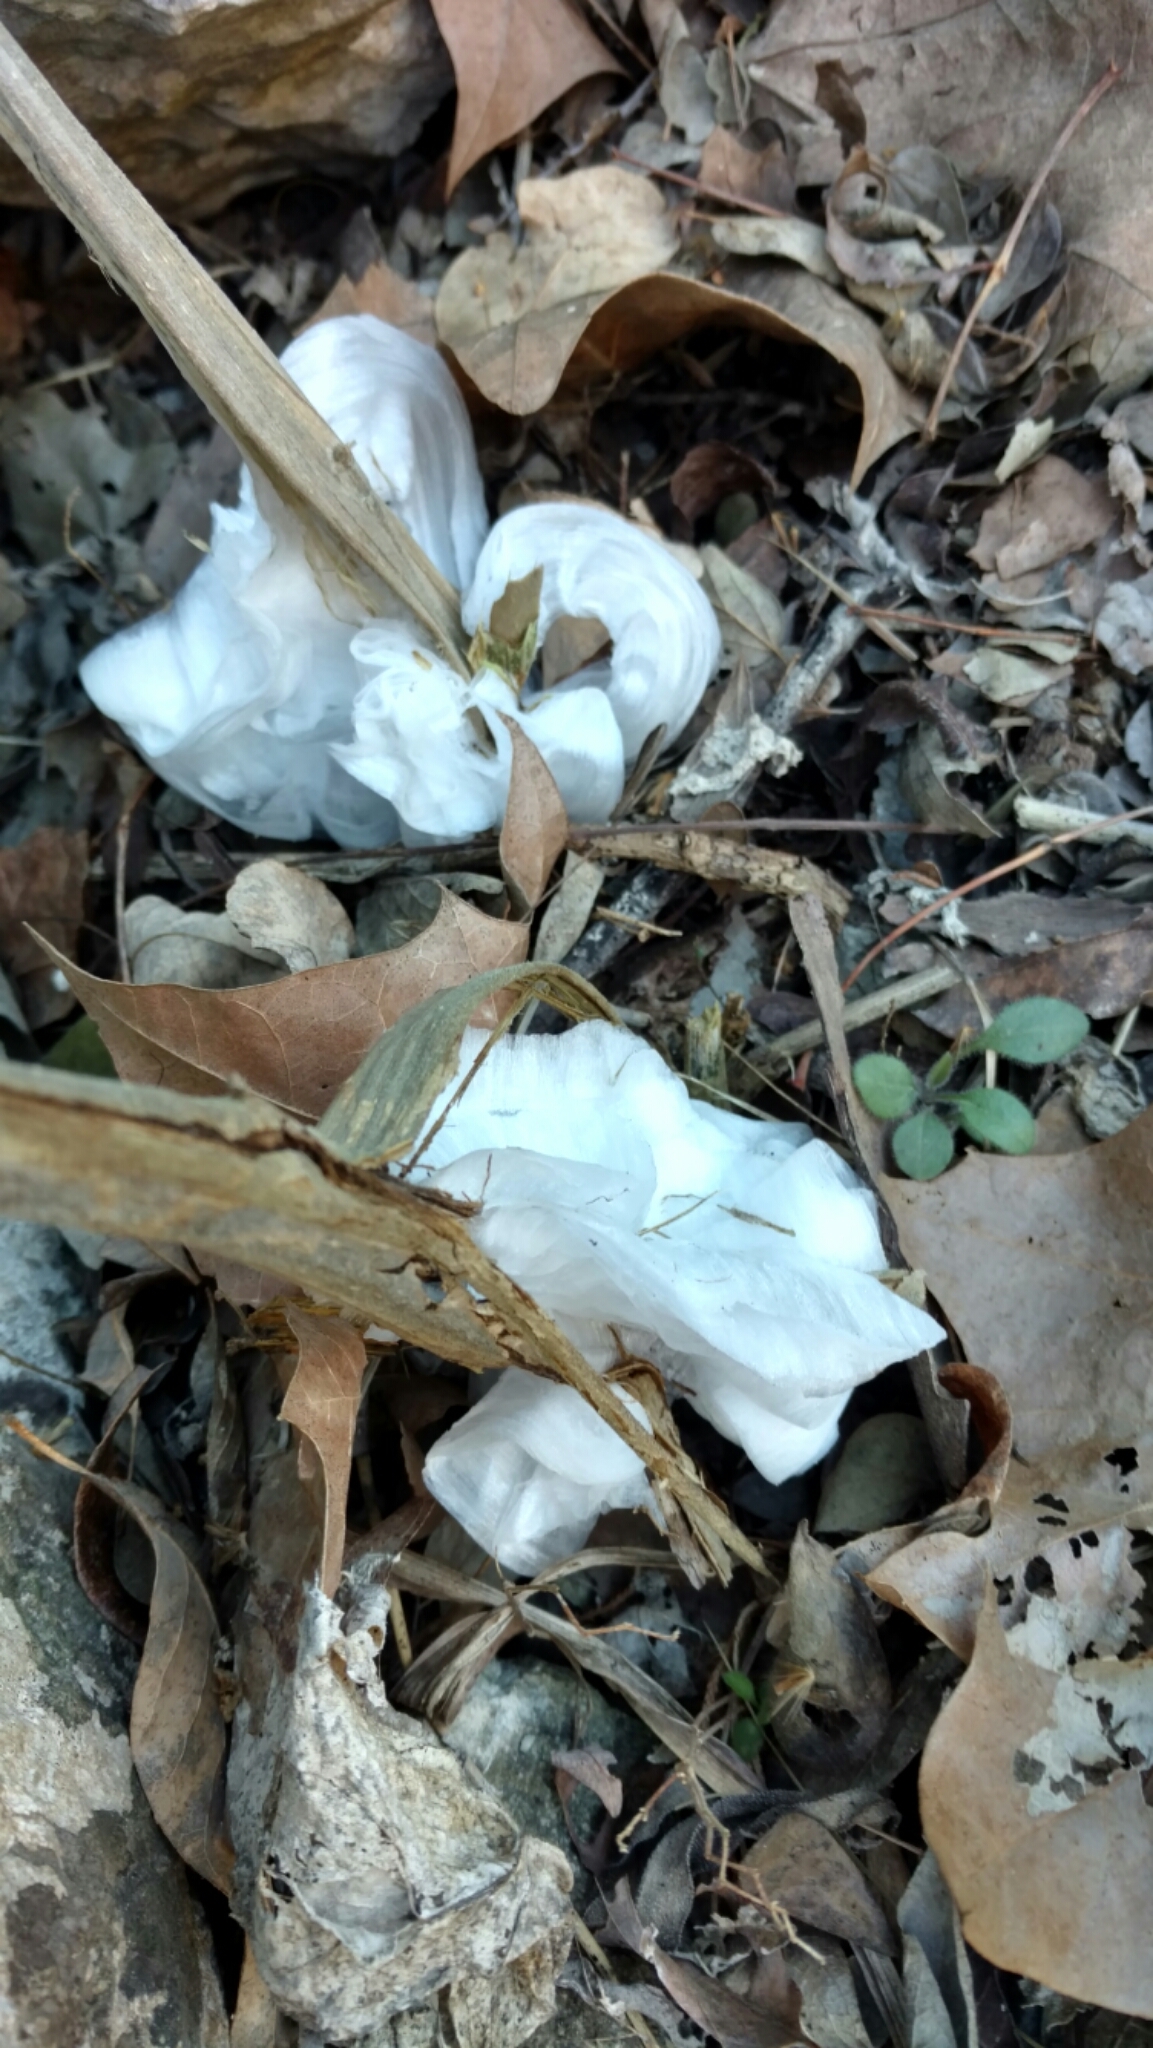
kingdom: Plantae
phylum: Tracheophyta
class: Magnoliopsida
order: Asterales
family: Asteraceae
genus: Verbesina
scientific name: Verbesina virginica
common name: Frostweed
